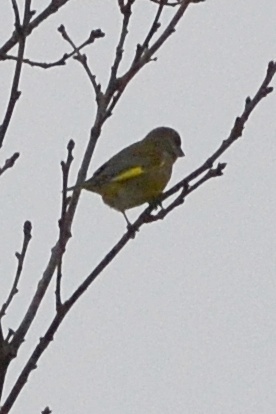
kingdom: Plantae
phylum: Tracheophyta
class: Liliopsida
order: Poales
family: Poaceae
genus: Chloris
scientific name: Chloris chloris
